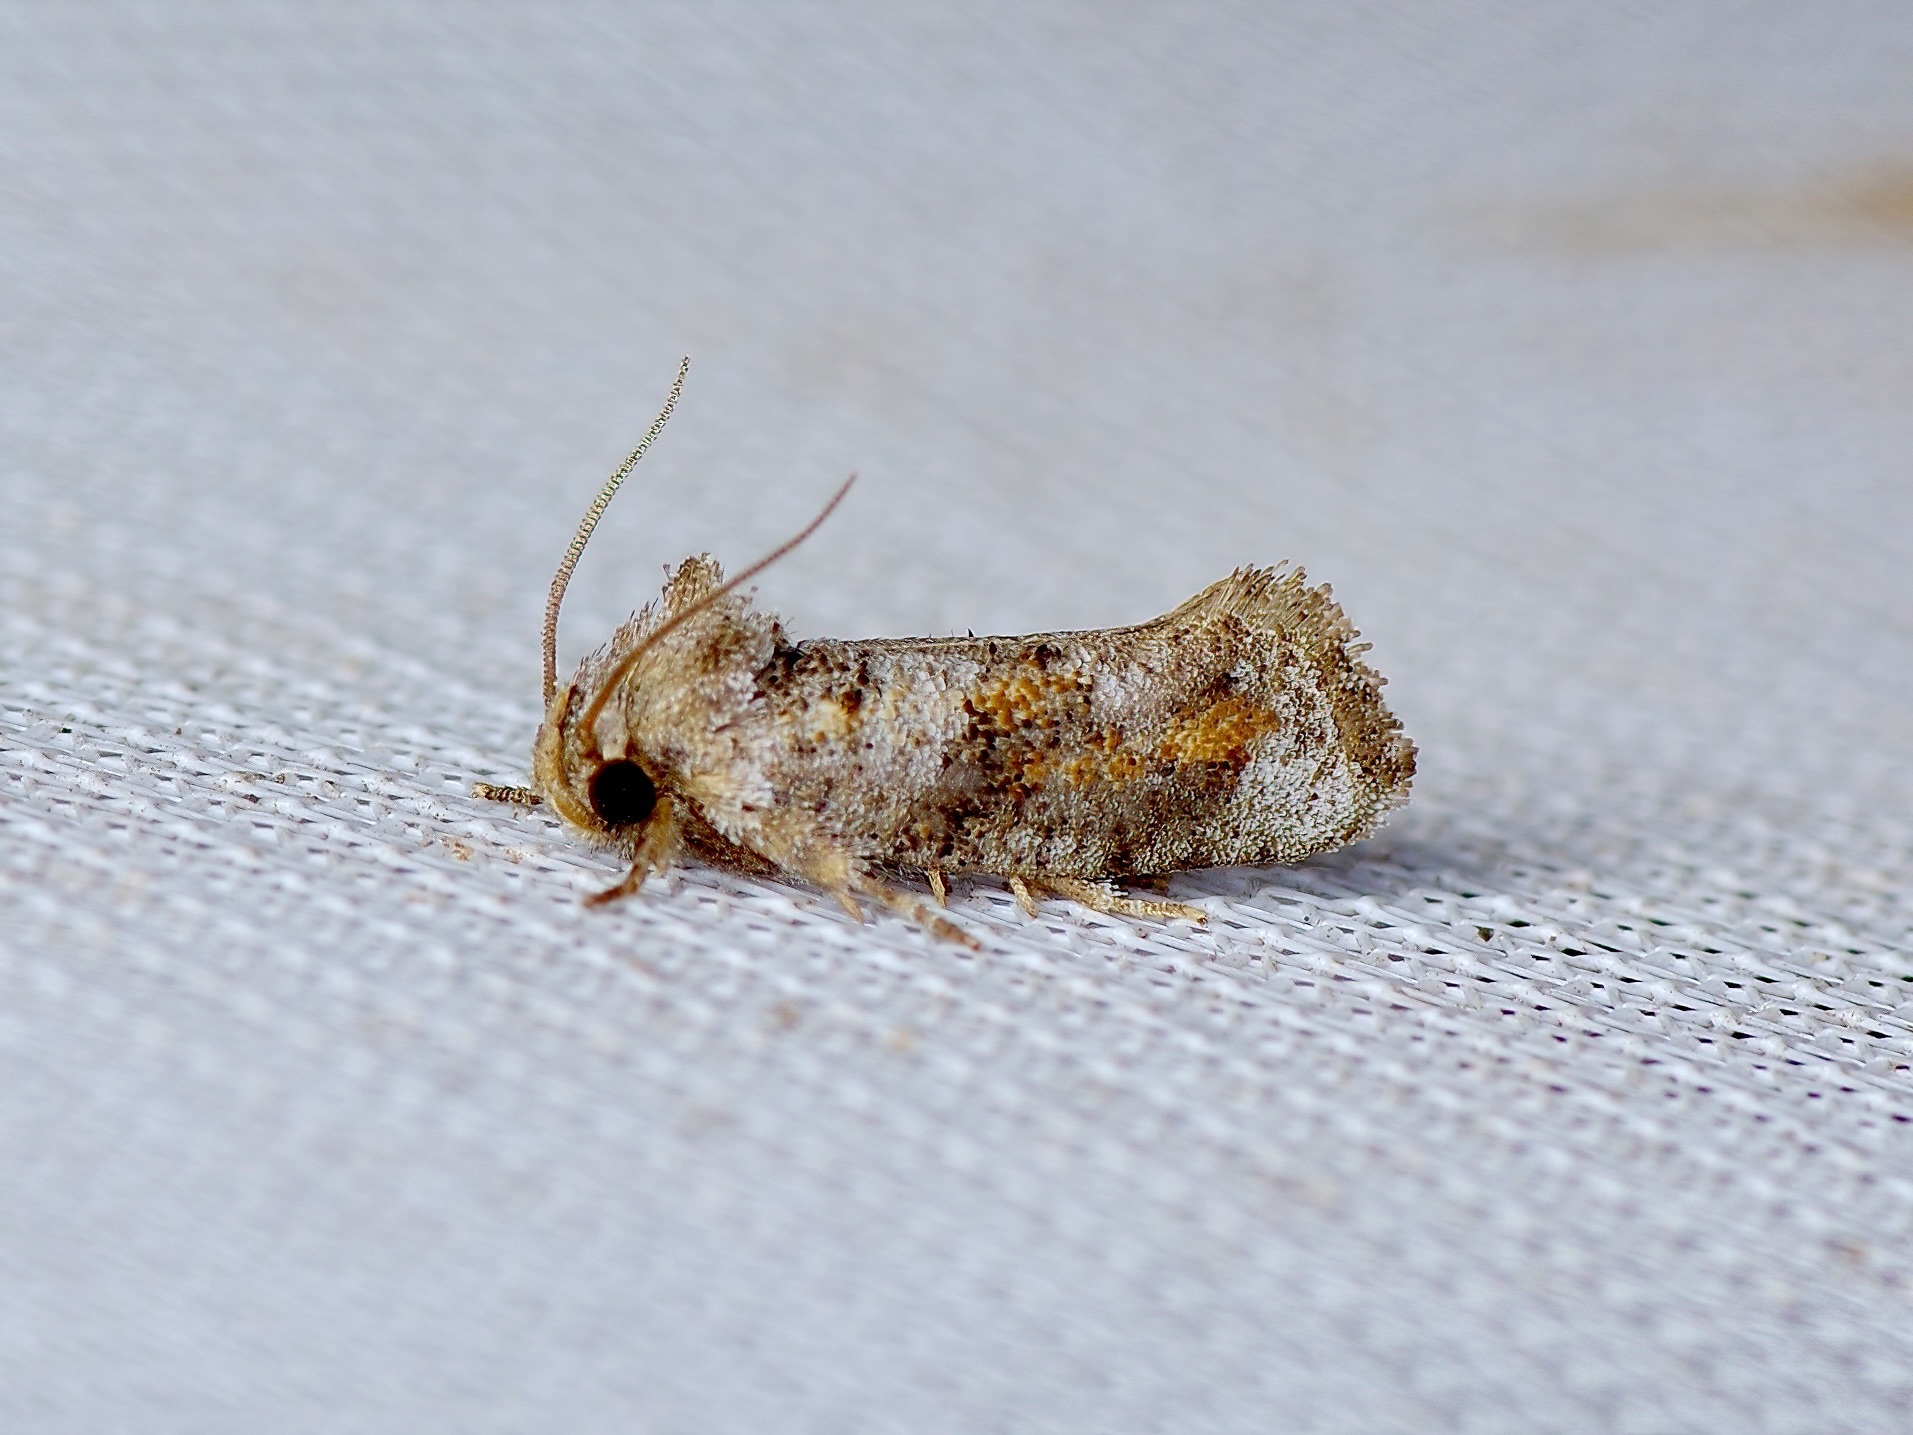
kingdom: Animalia
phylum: Arthropoda
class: Insecta
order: Lepidoptera
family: Tineidae
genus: Acrolophus
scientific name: Acrolophus piger
